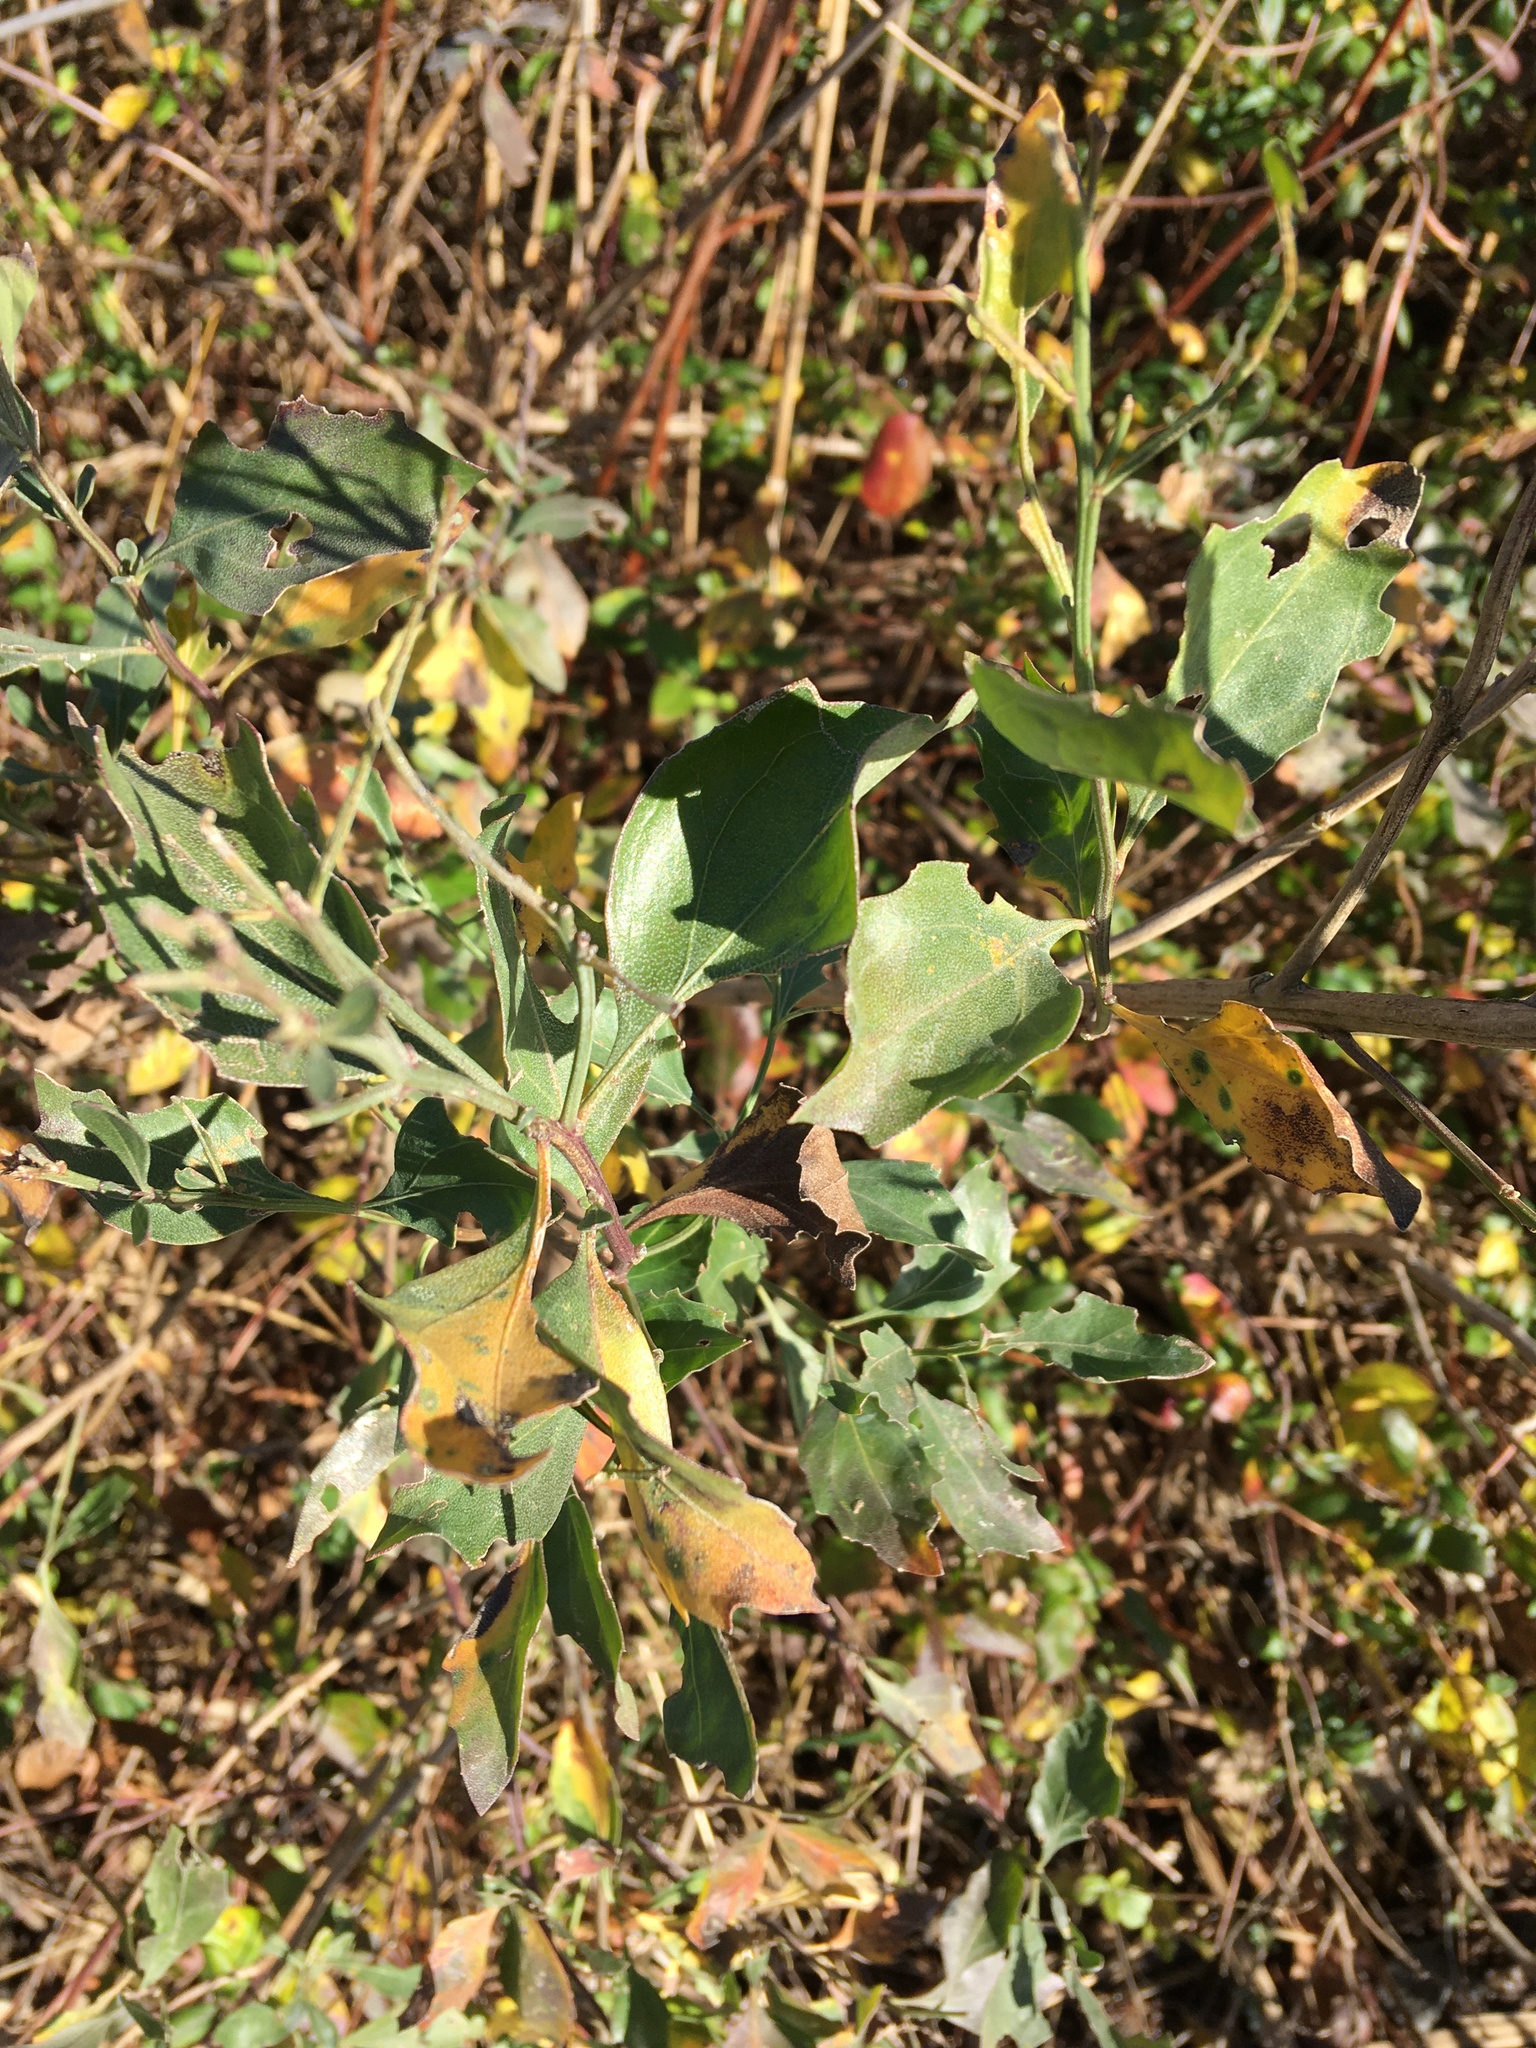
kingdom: Plantae
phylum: Tracheophyta
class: Magnoliopsida
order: Asterales
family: Asteraceae
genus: Baccharis
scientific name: Baccharis halimifolia
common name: Eastern baccharis
